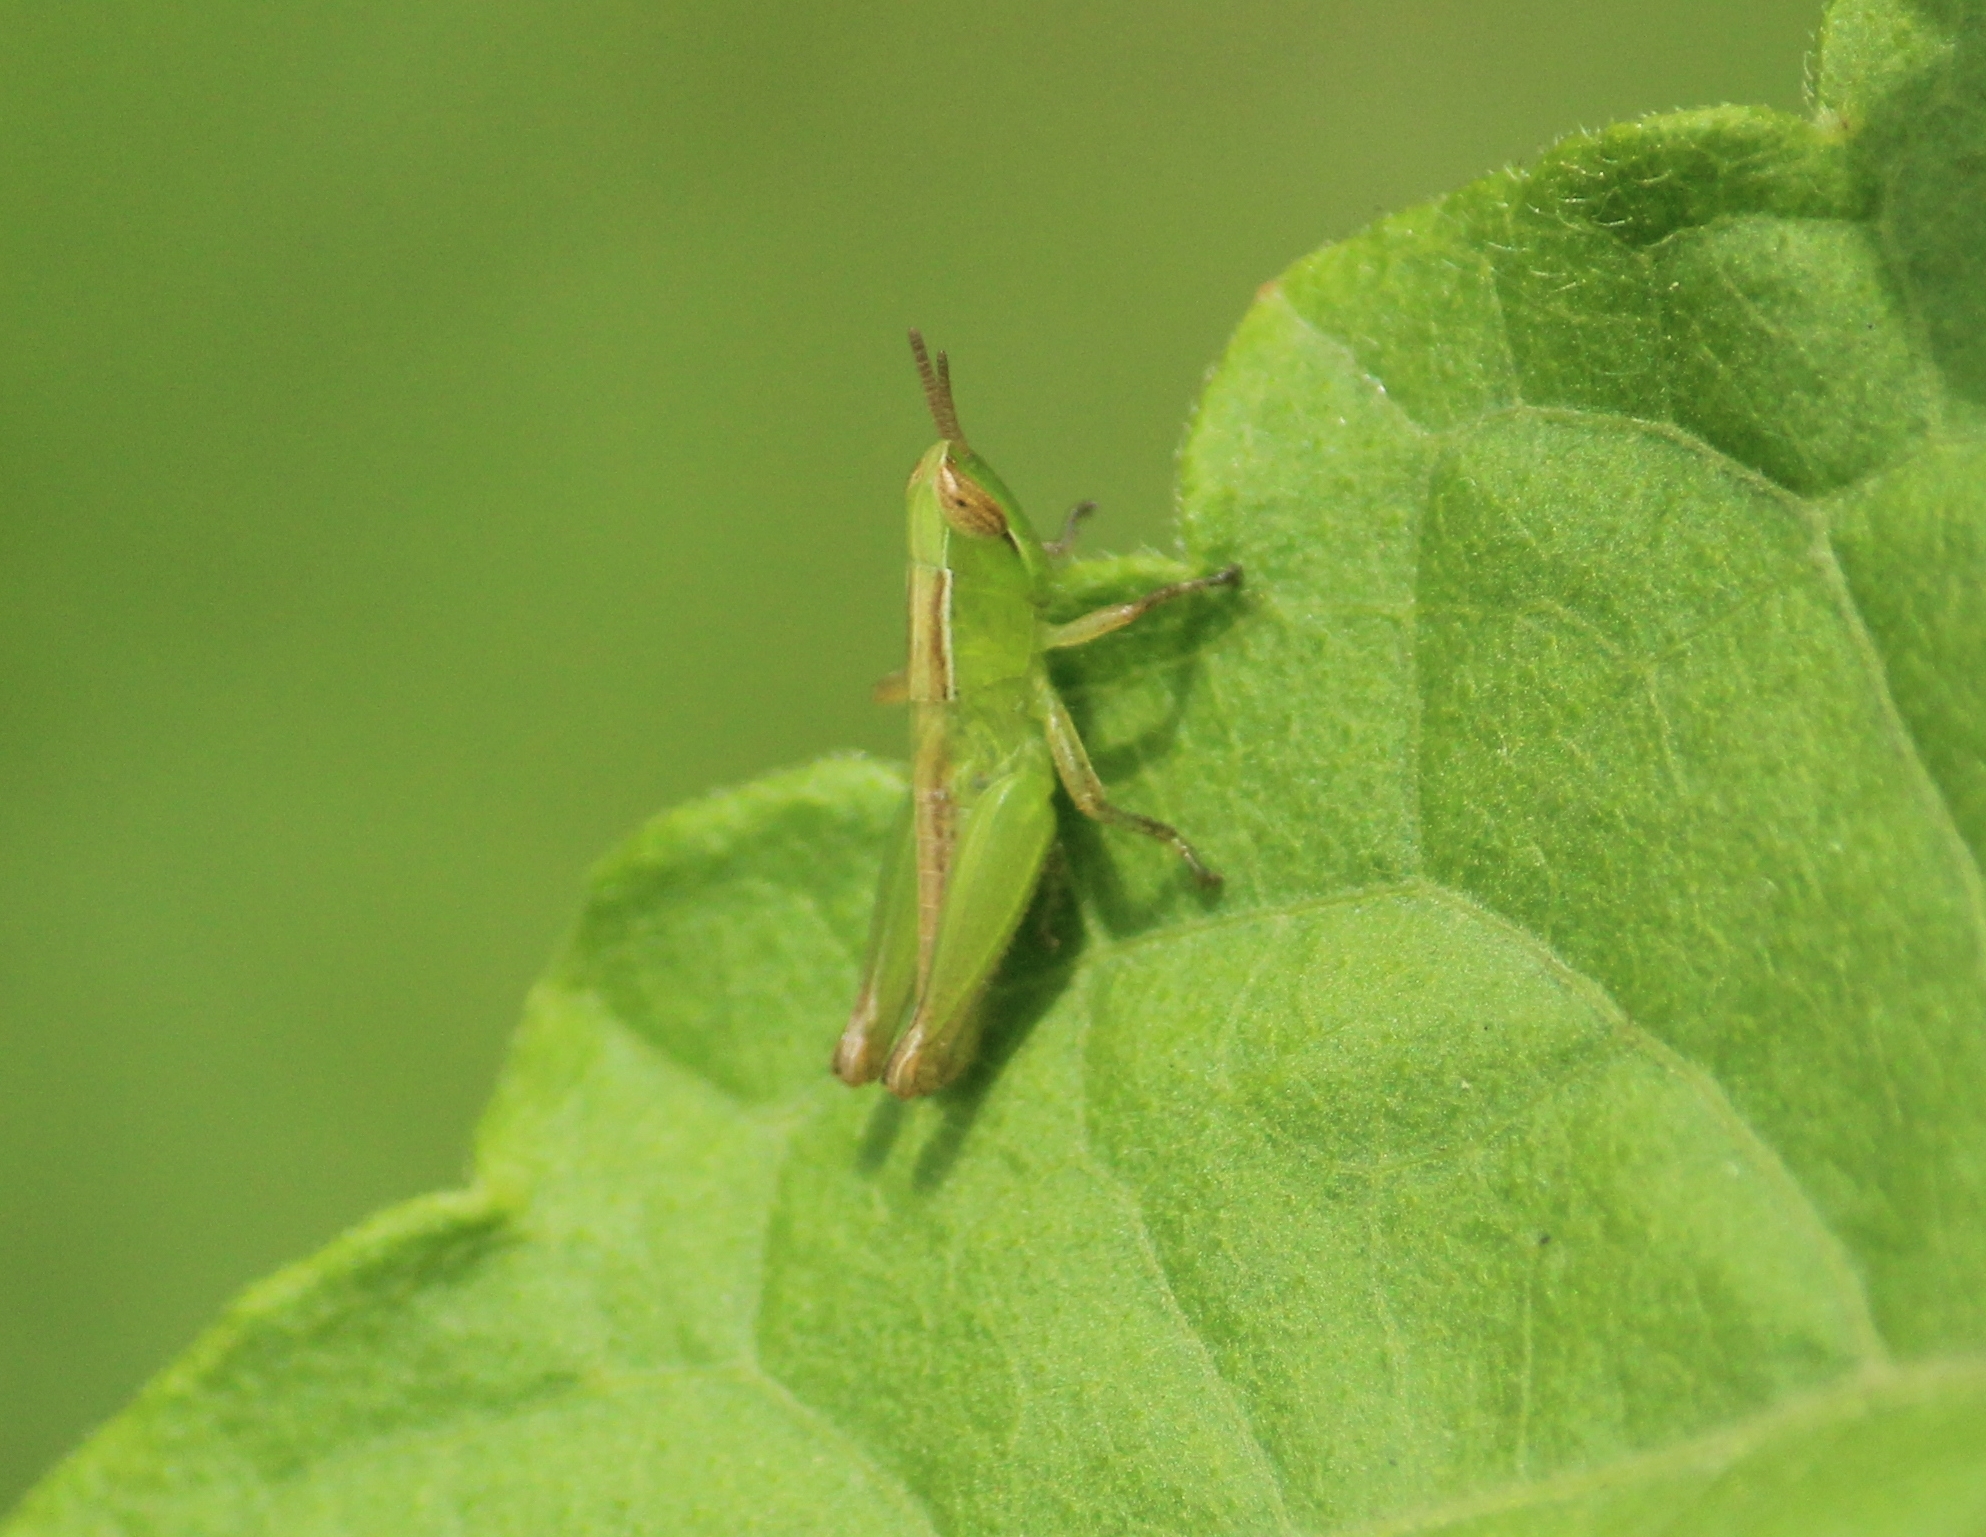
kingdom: Animalia
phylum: Arthropoda
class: Insecta
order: Orthoptera
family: Acrididae
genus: Spathosternum
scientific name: Spathosternum prasiniferum
